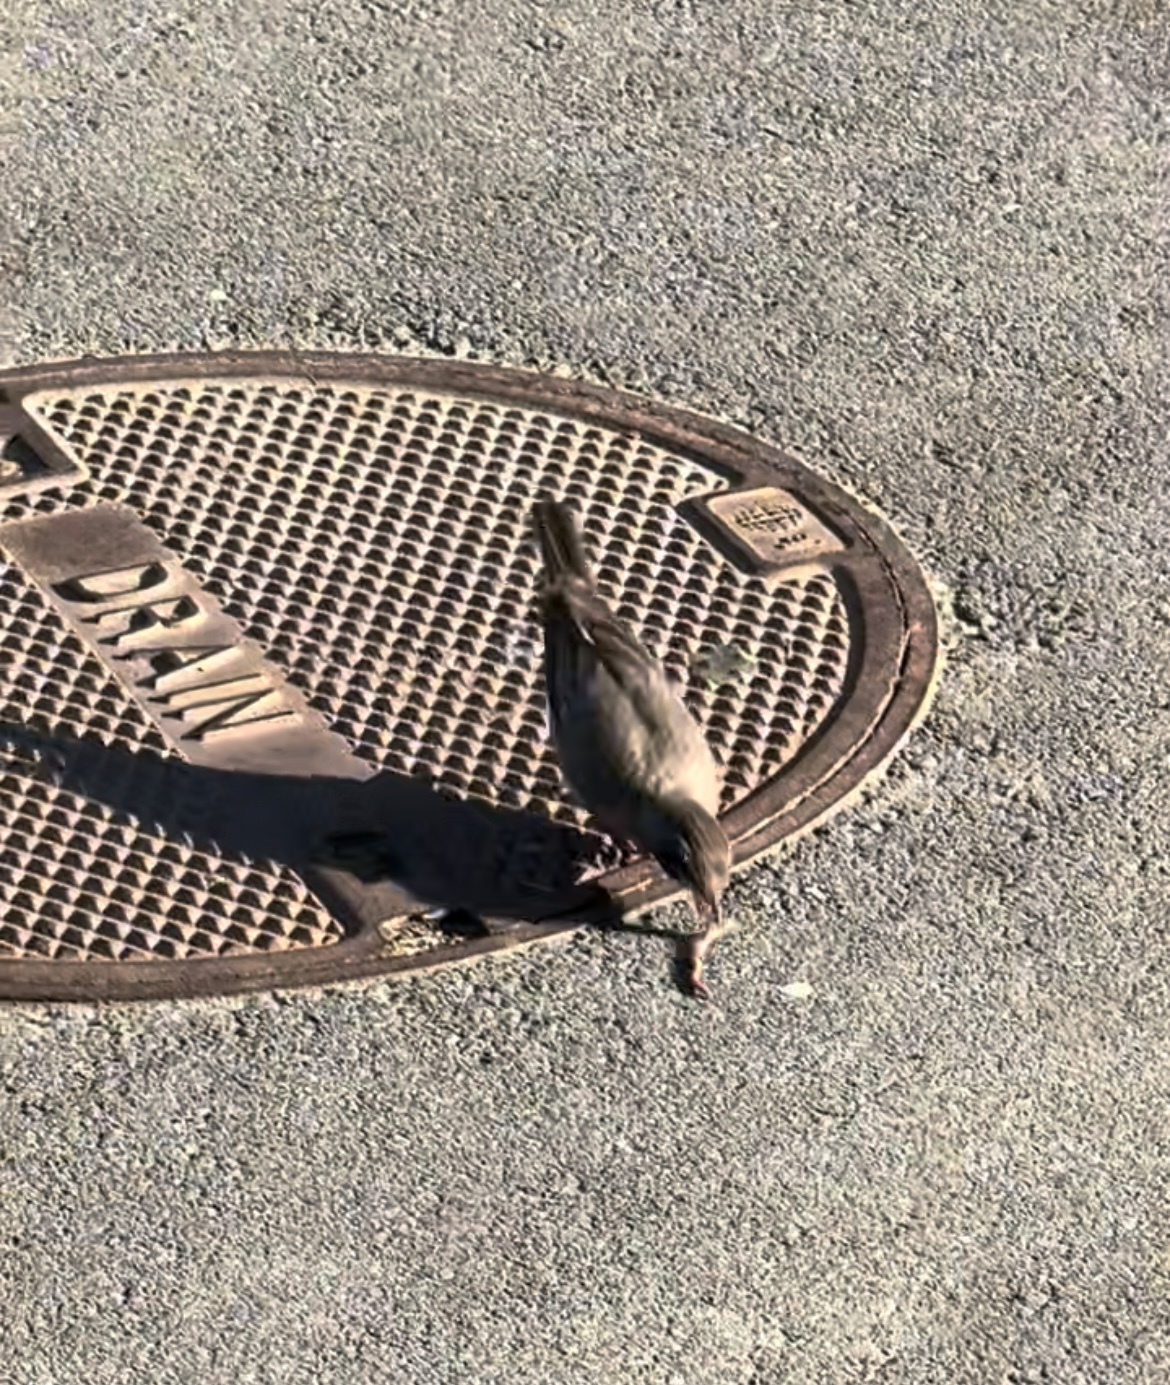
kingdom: Animalia
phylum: Chordata
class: Aves
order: Passeriformes
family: Turdidae
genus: Turdus
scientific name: Turdus migratorius
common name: American robin
